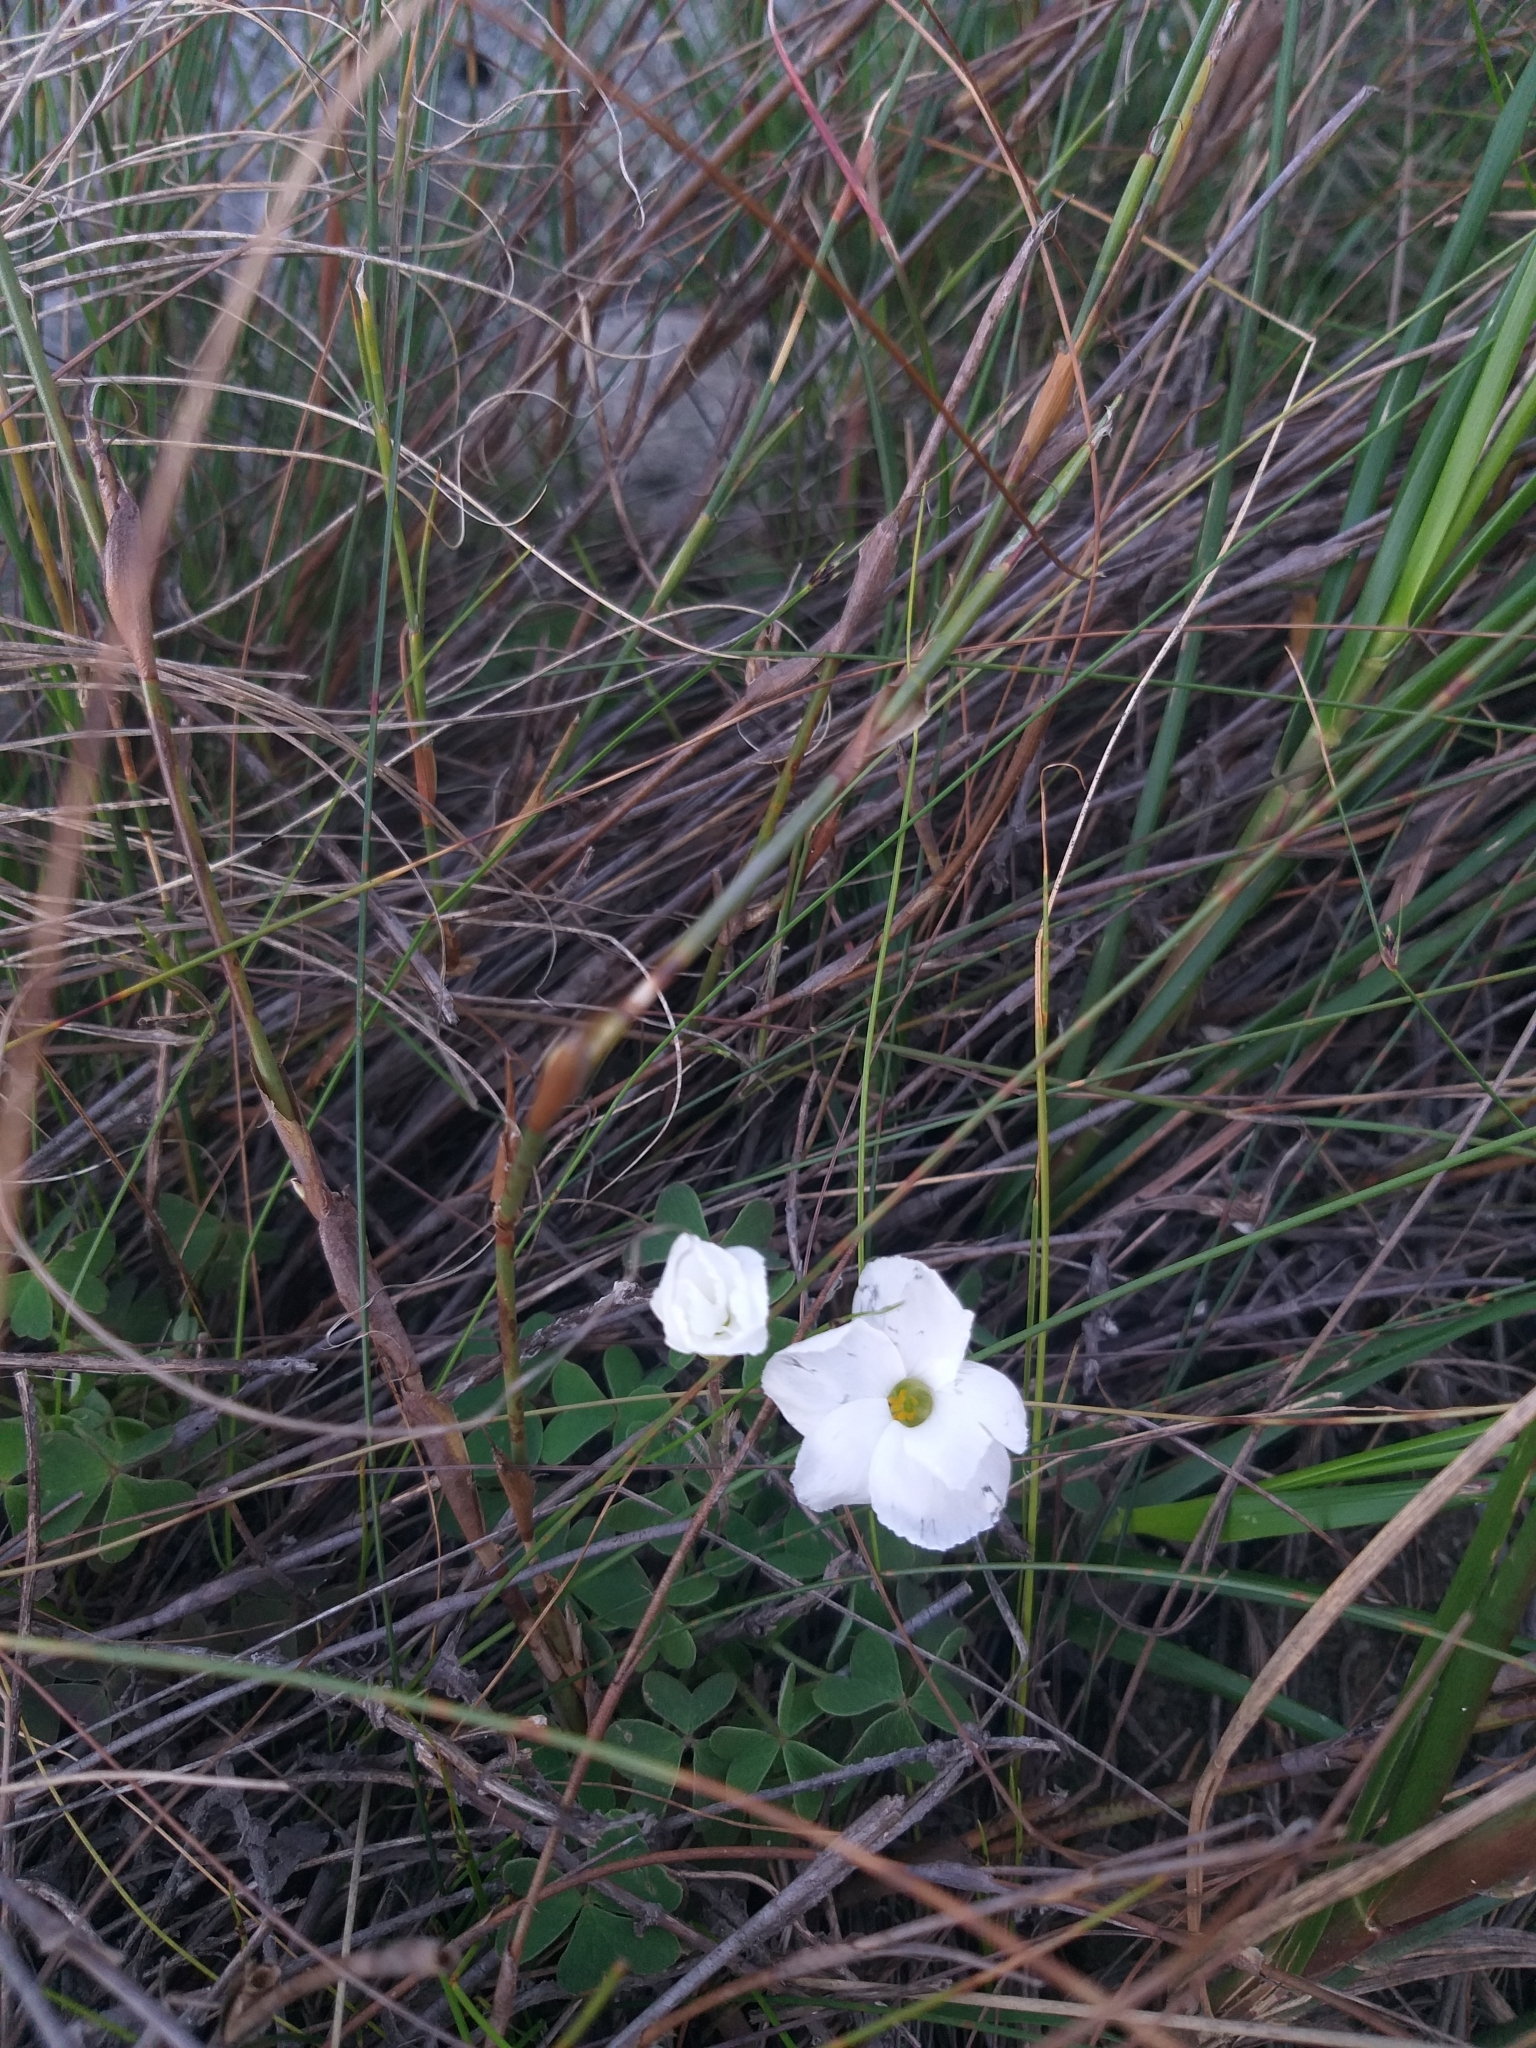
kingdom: Plantae
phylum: Tracheophyta
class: Magnoliopsida
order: Oxalidales
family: Oxalidaceae
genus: Oxalis
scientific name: Oxalis lanata
